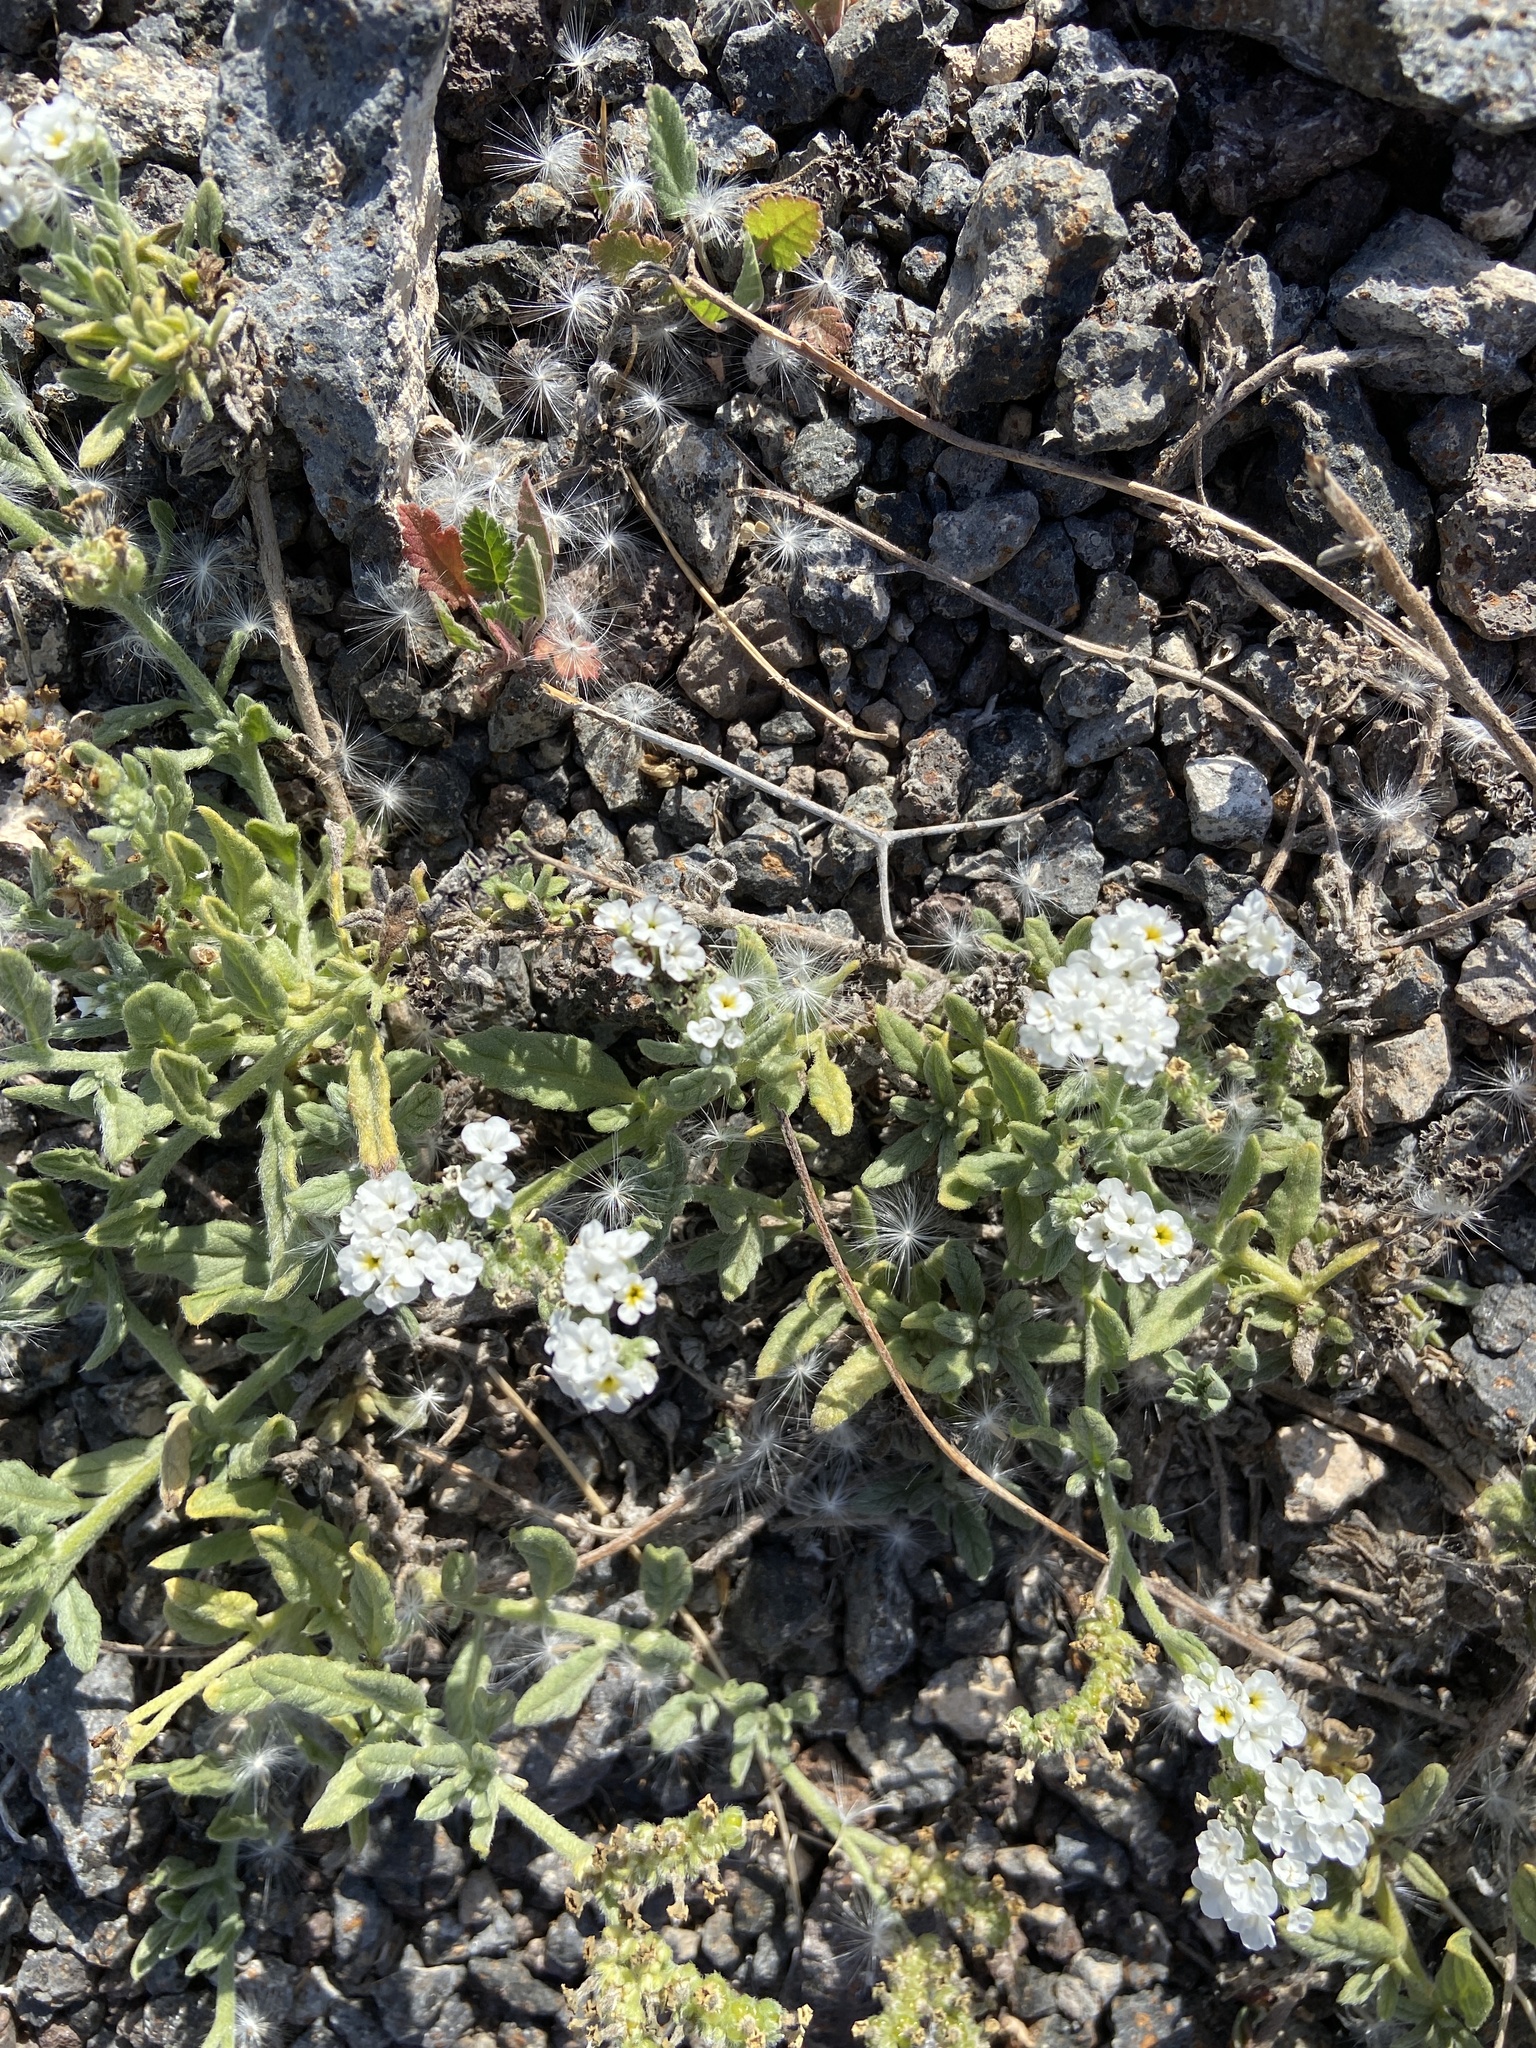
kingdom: Plantae
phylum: Tracheophyta
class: Magnoliopsida
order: Boraginales
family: Heliotropiaceae
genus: Heliotropium
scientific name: Heliotropium ramosissimum
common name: Wavy heliotrope
